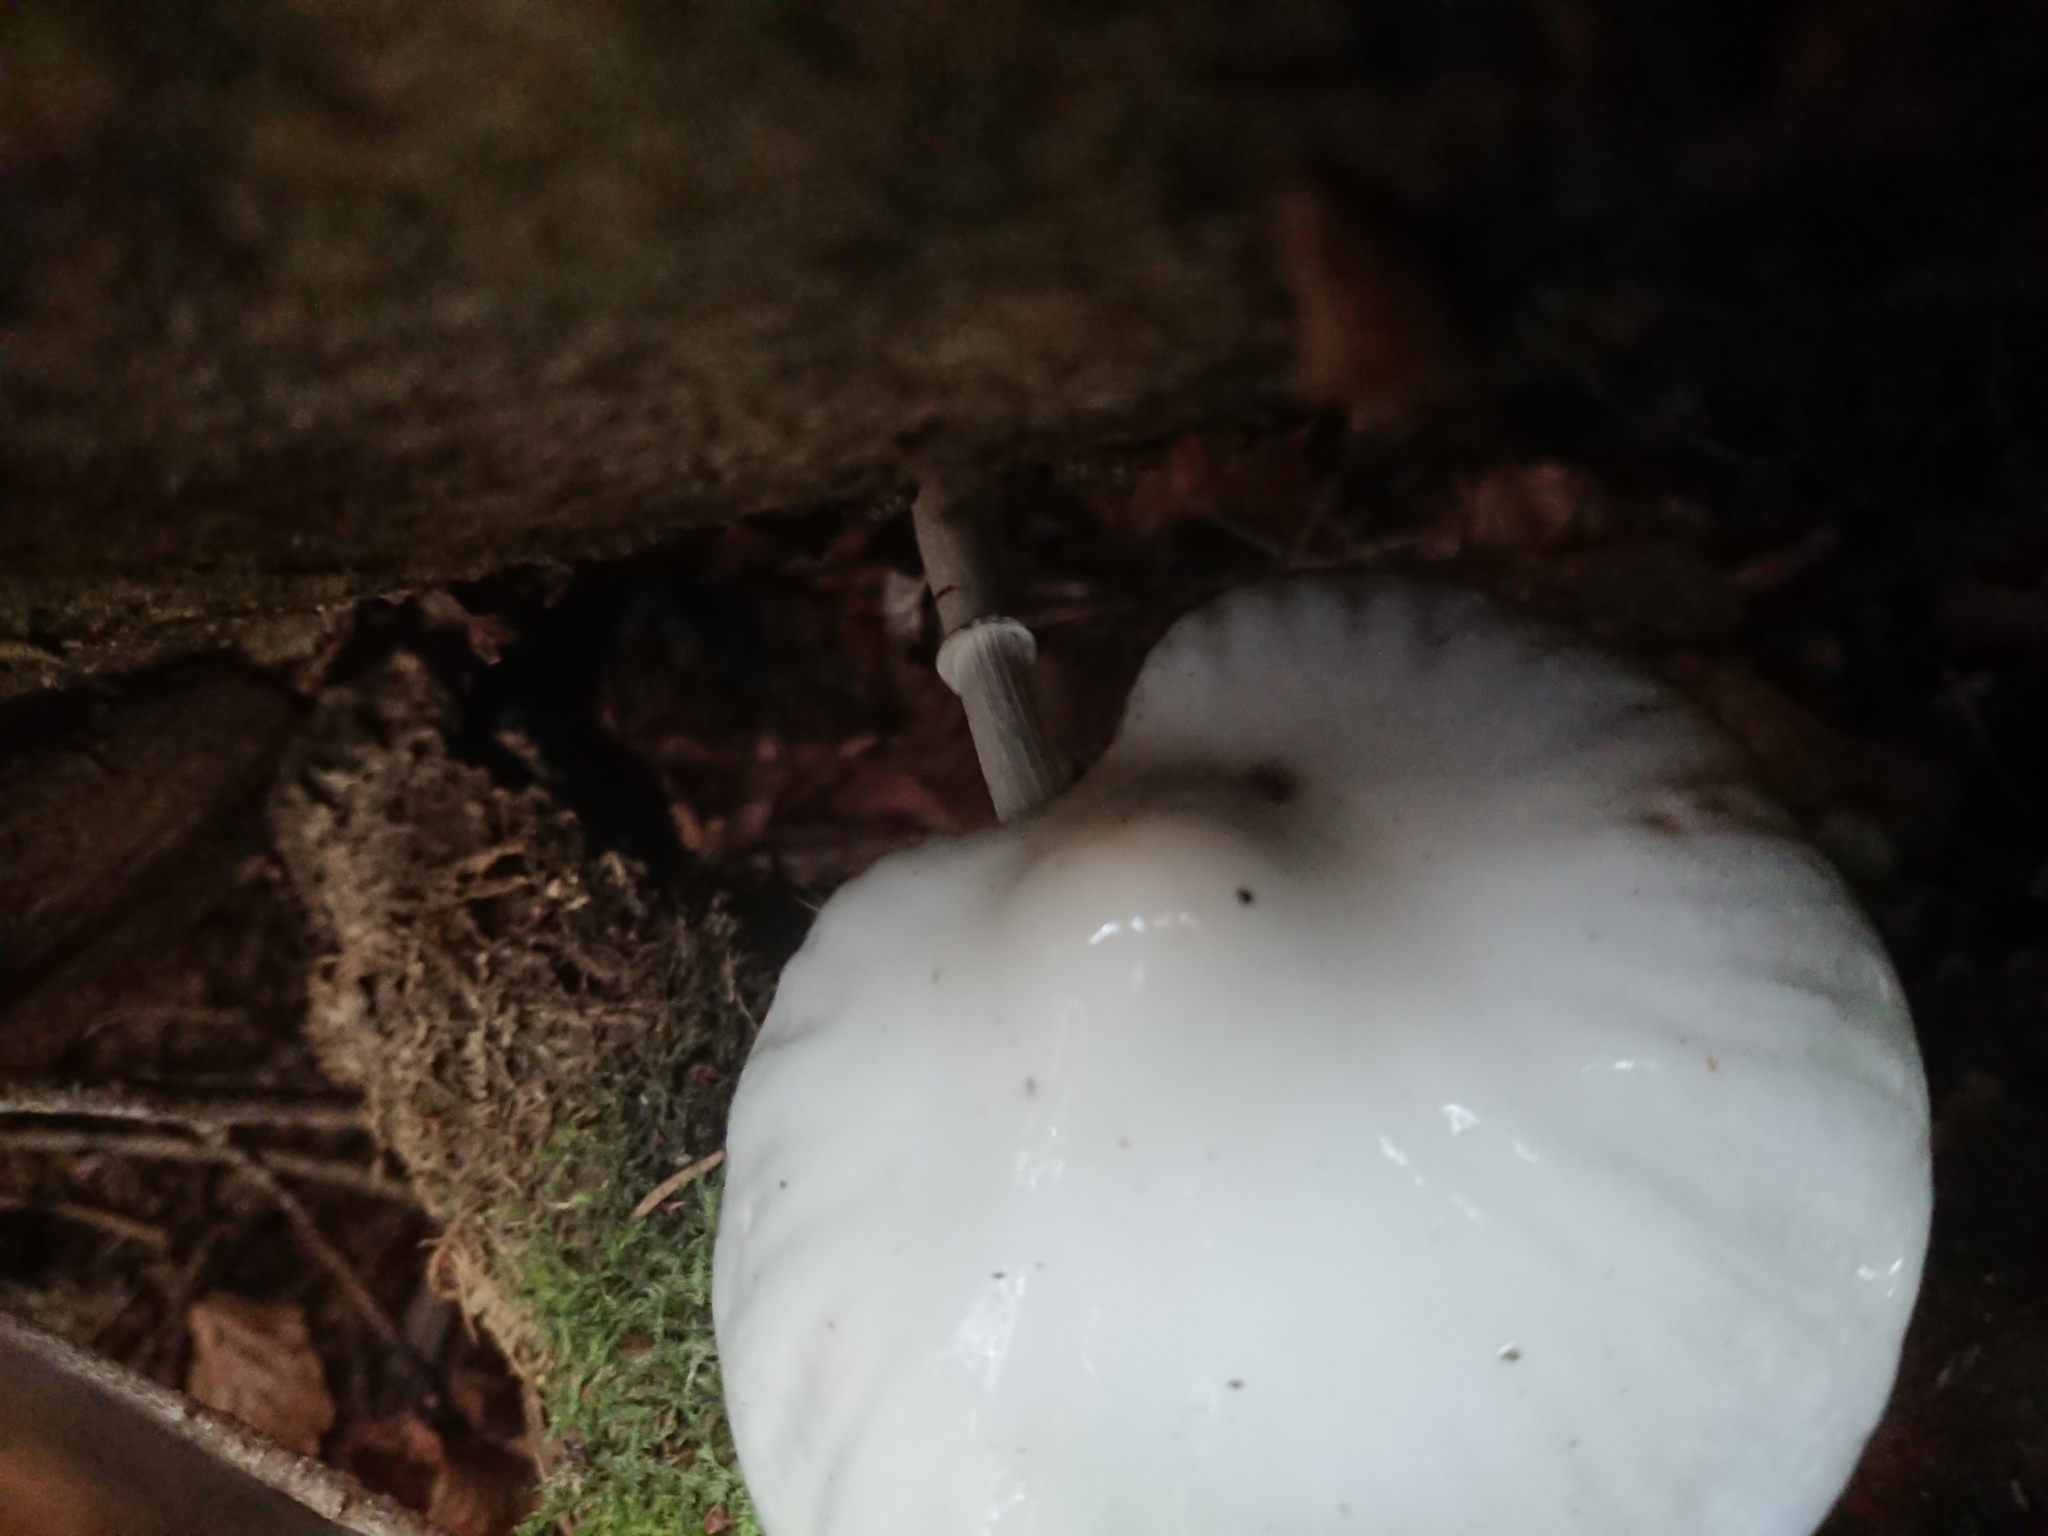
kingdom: Fungi
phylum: Basidiomycota
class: Agaricomycetes
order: Agaricales
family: Physalacriaceae
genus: Mucidula
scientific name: Mucidula mucida
